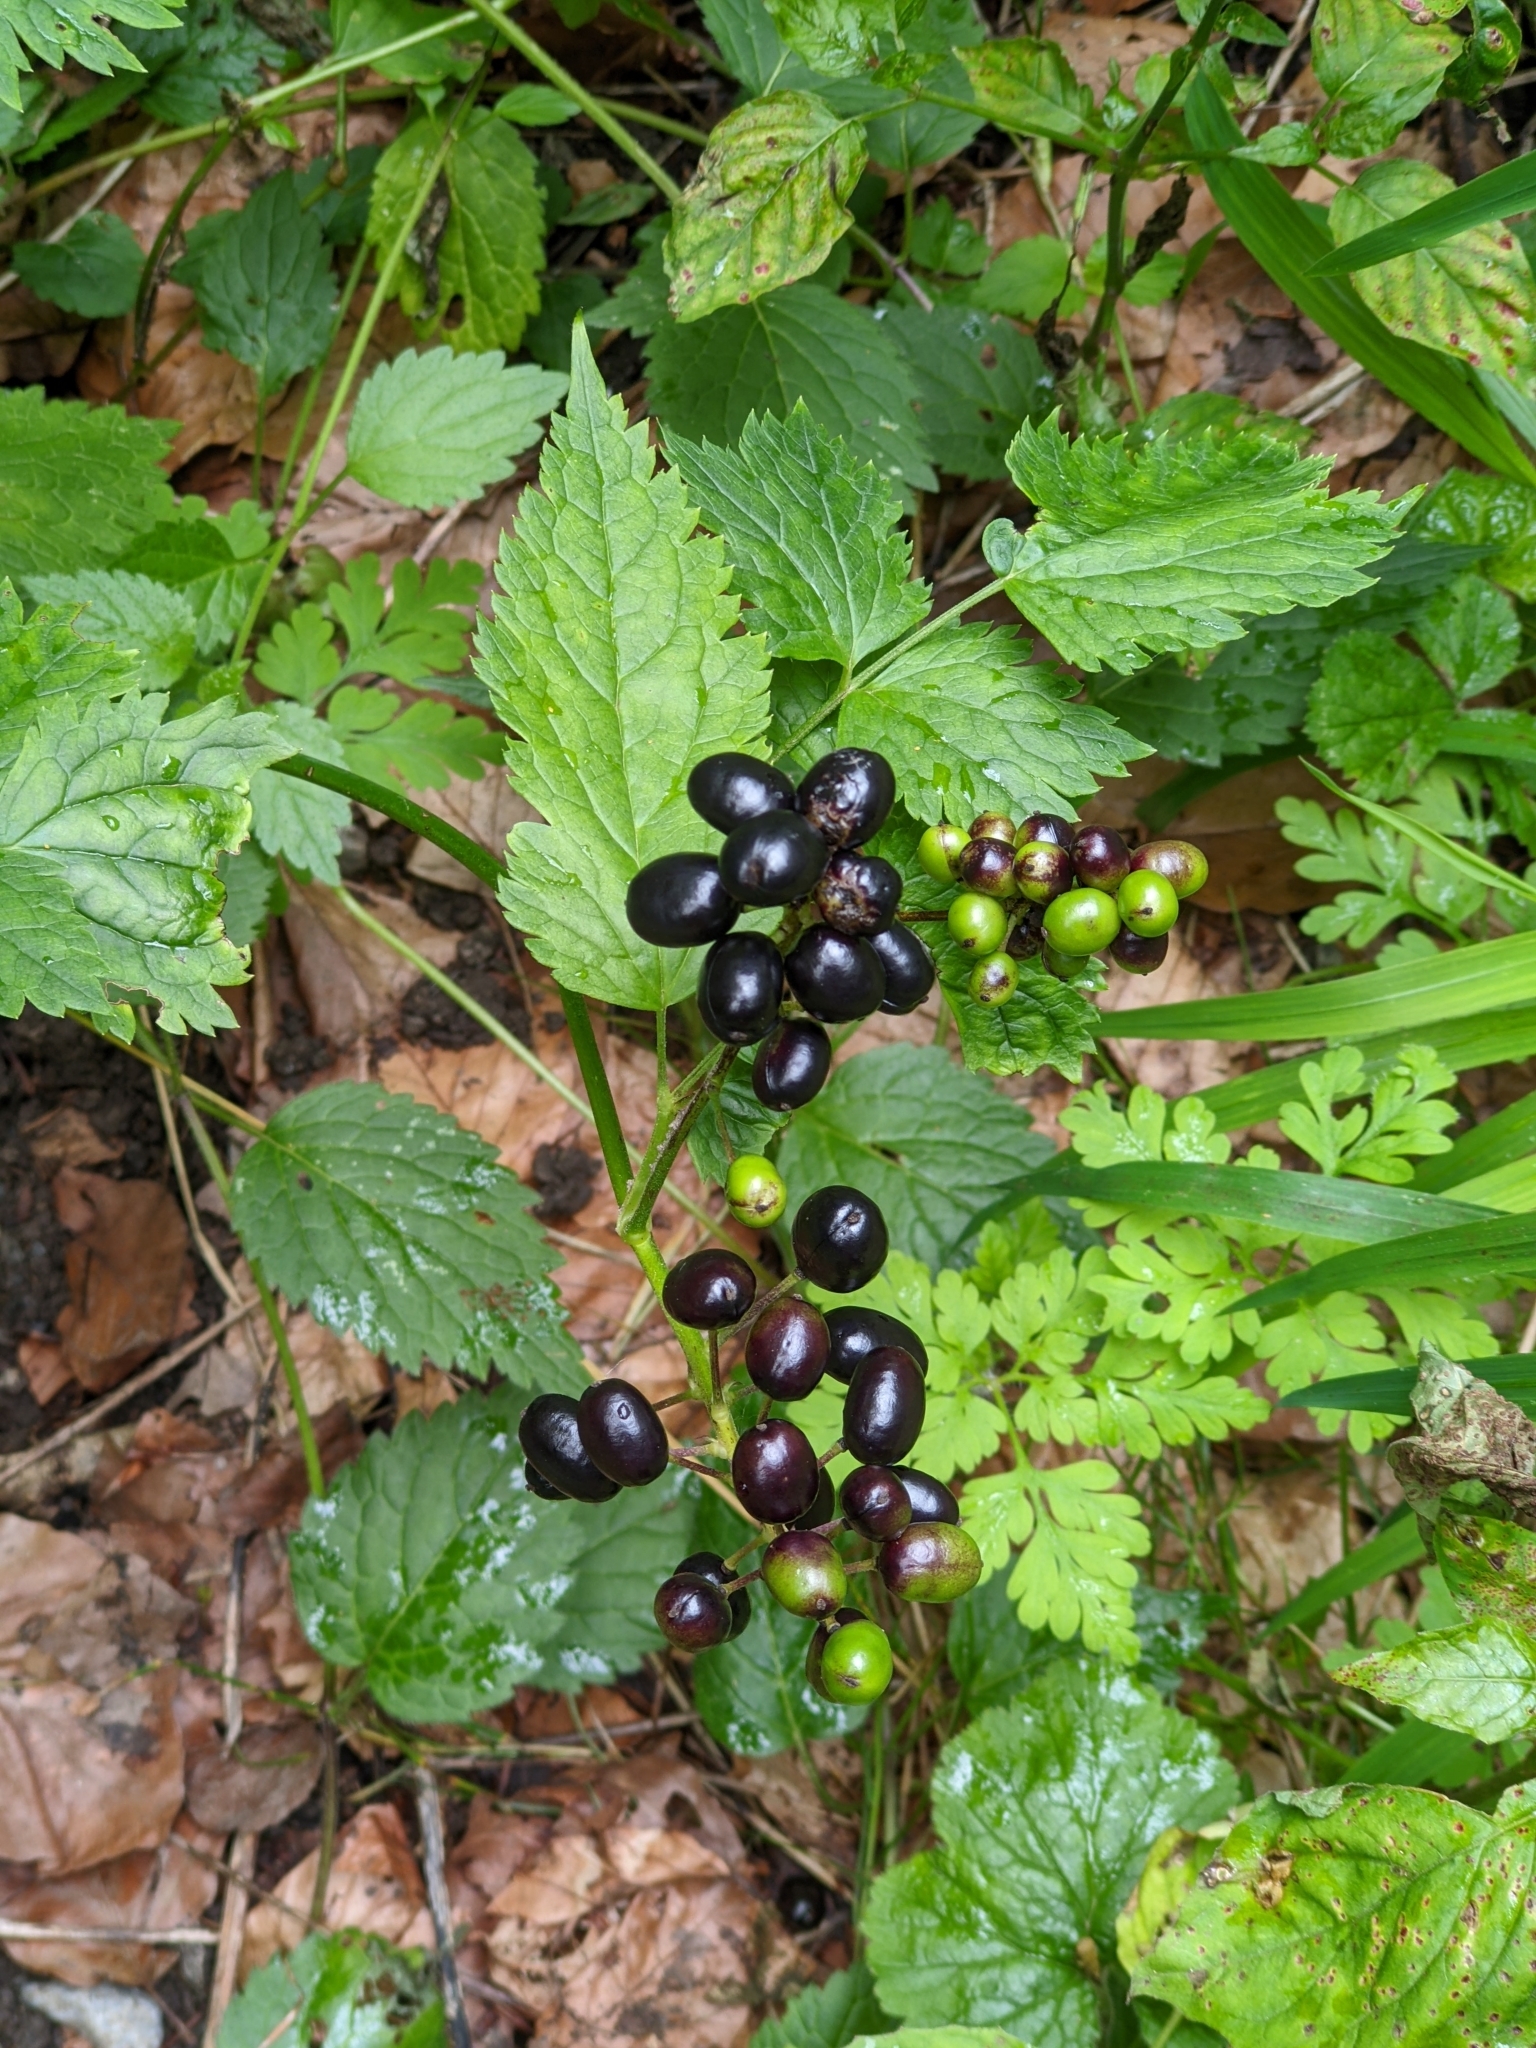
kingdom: Plantae
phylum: Tracheophyta
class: Magnoliopsida
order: Ranunculales
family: Ranunculaceae
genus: Actaea
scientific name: Actaea spicata
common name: Baneberry
